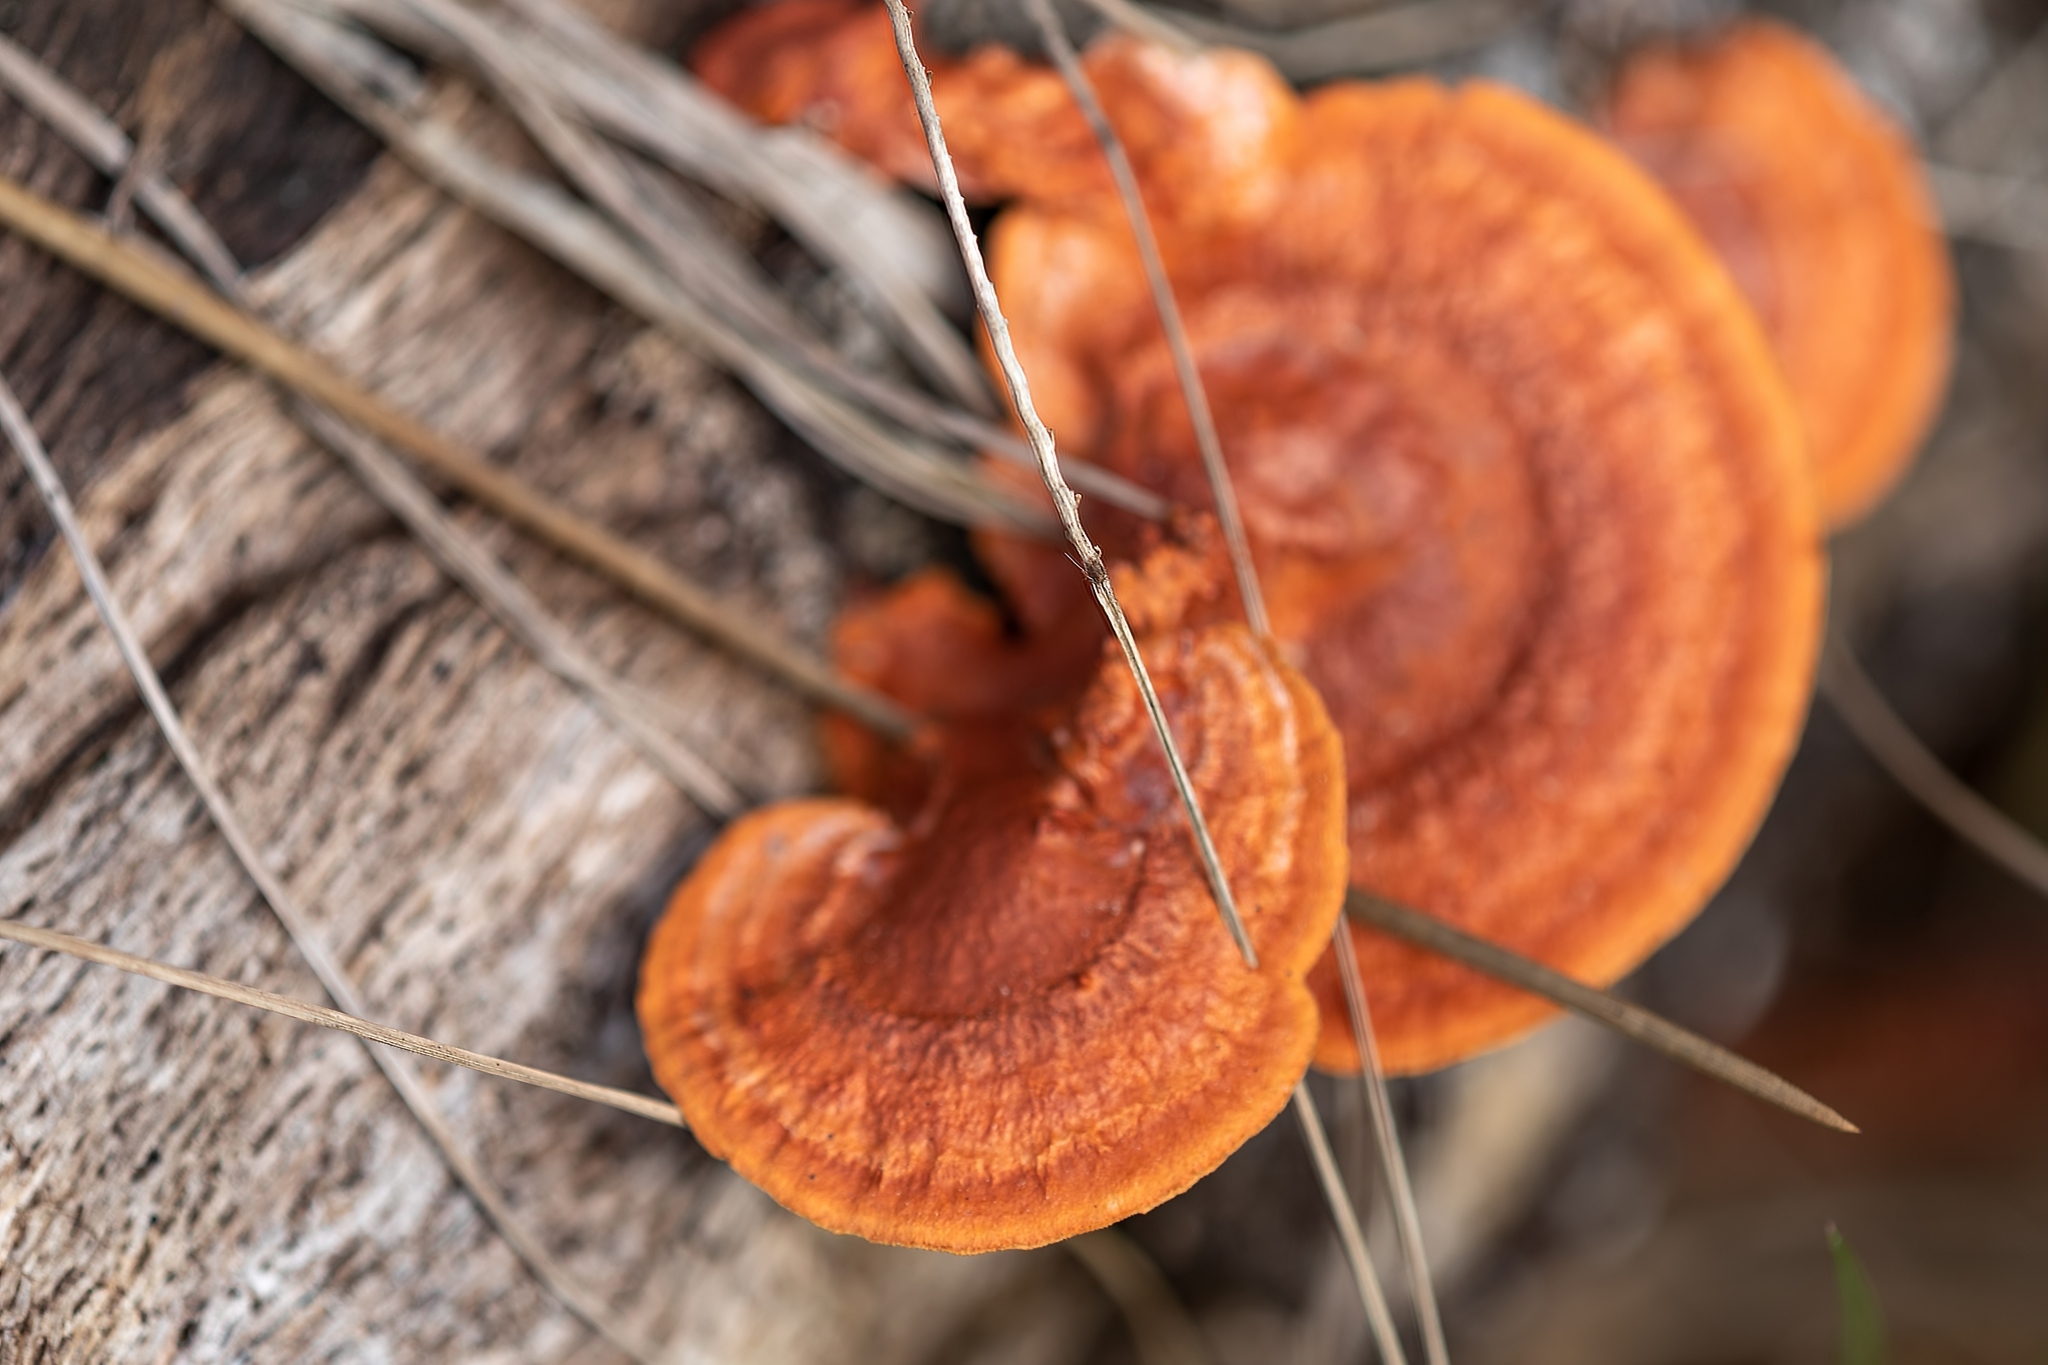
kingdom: Fungi
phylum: Basidiomycota
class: Agaricomycetes
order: Polyporales
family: Polyporaceae
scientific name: Polyporaceae
